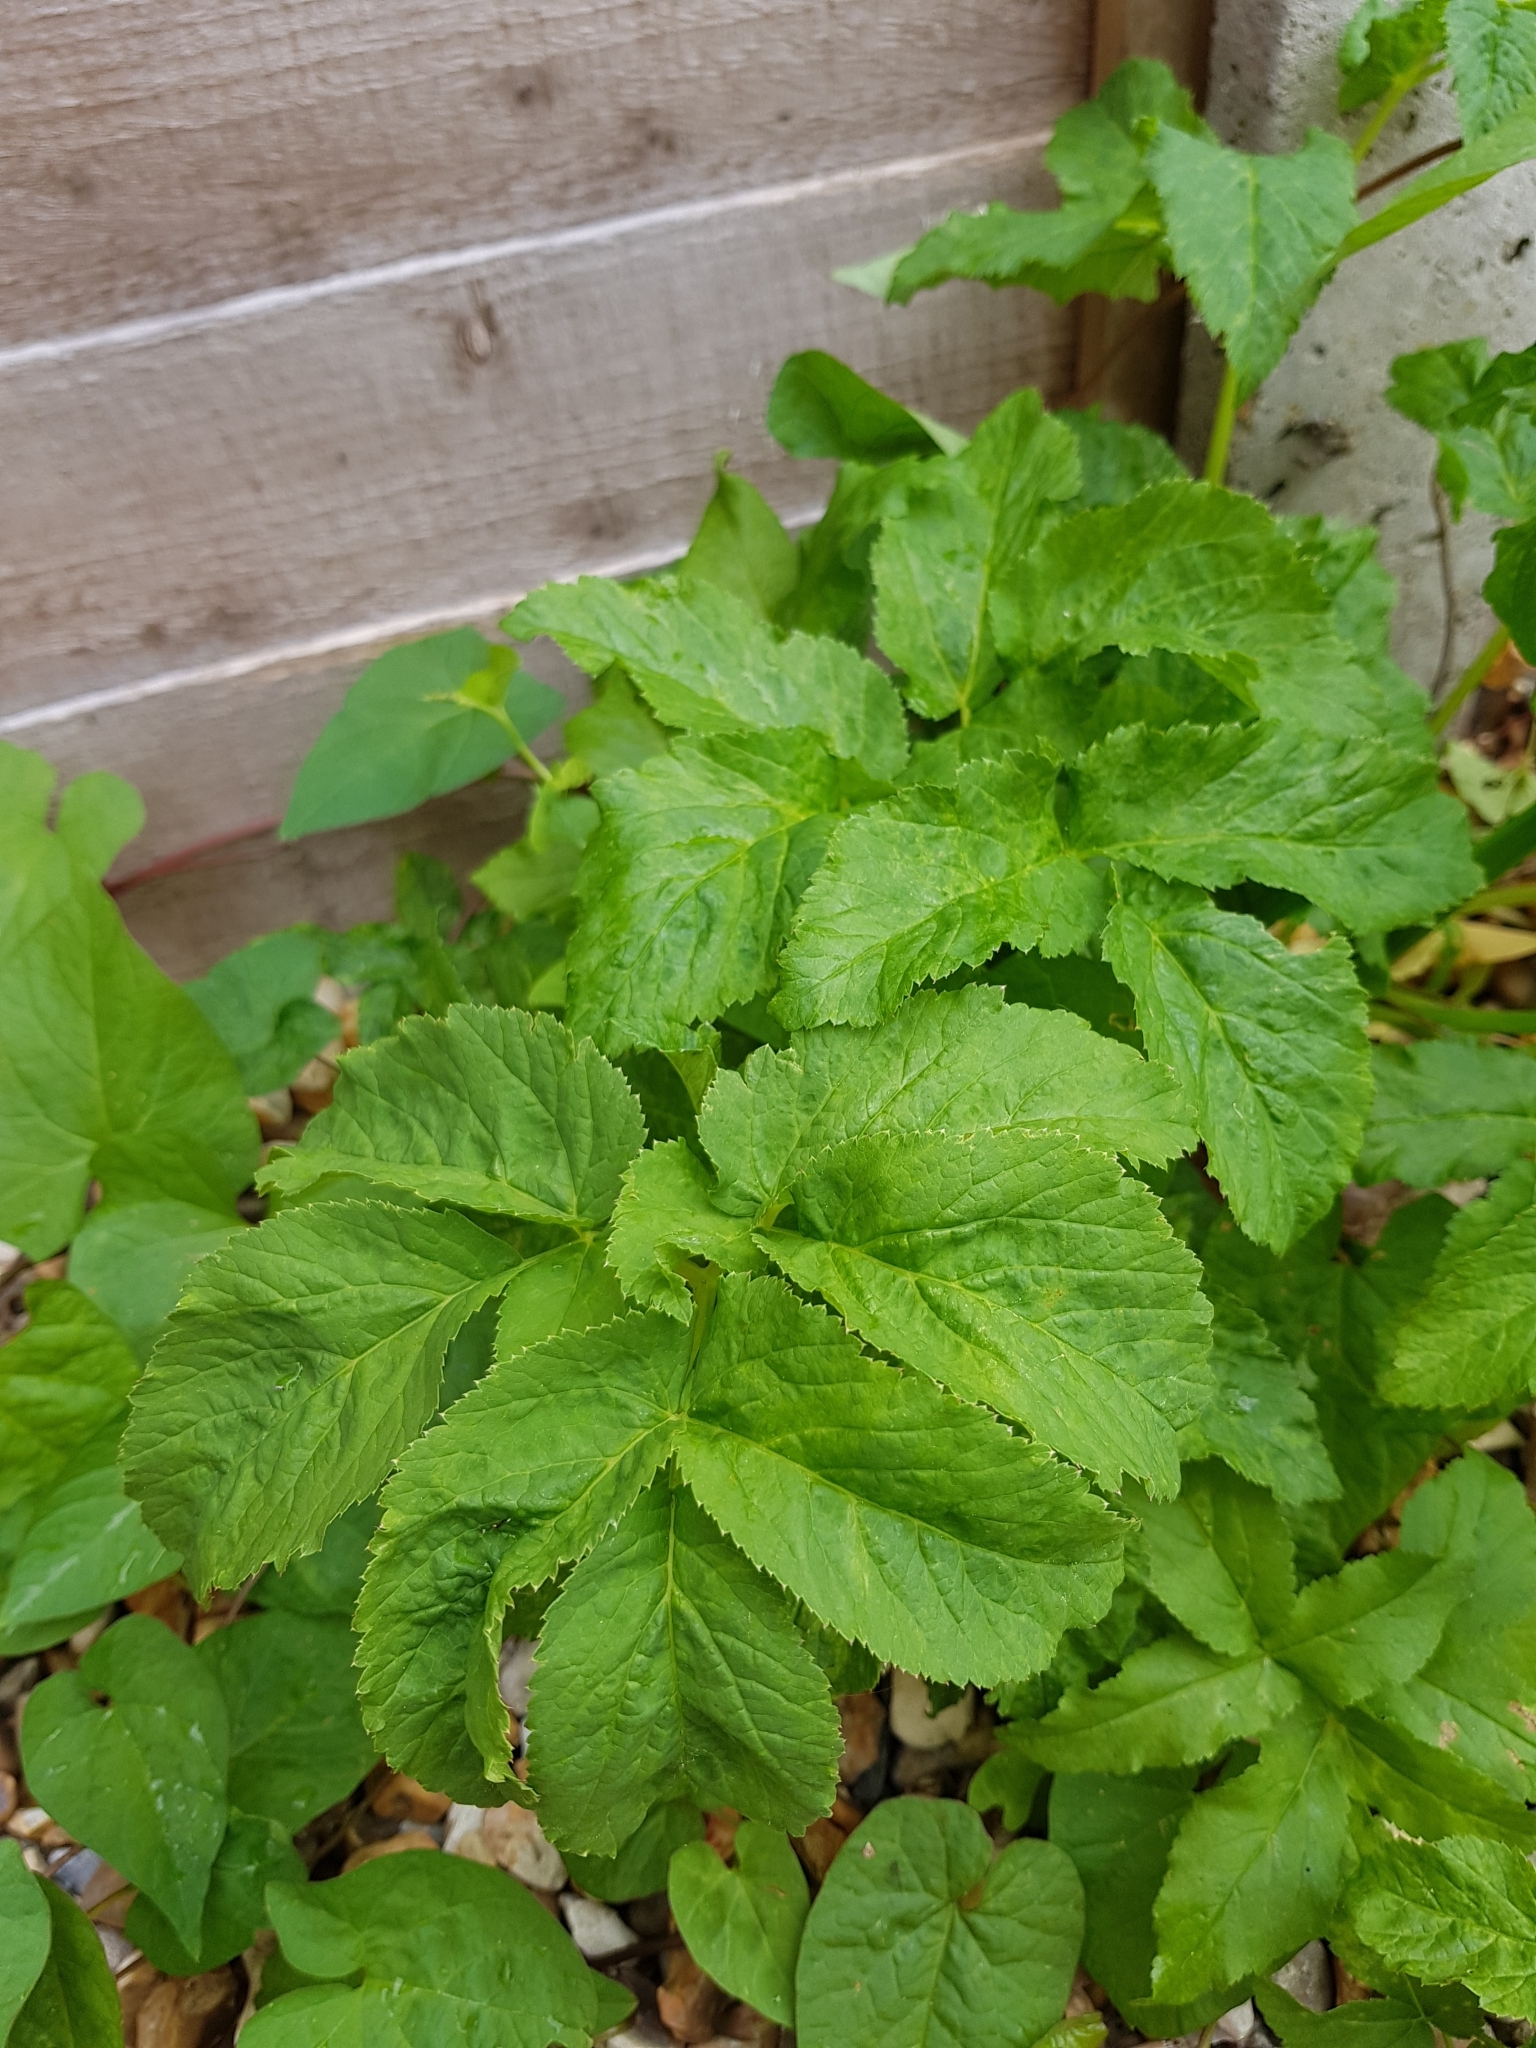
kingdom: Plantae
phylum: Tracheophyta
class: Magnoliopsida
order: Apiales
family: Apiaceae
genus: Aegopodium
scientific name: Aegopodium podagraria
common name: Ground-elder
